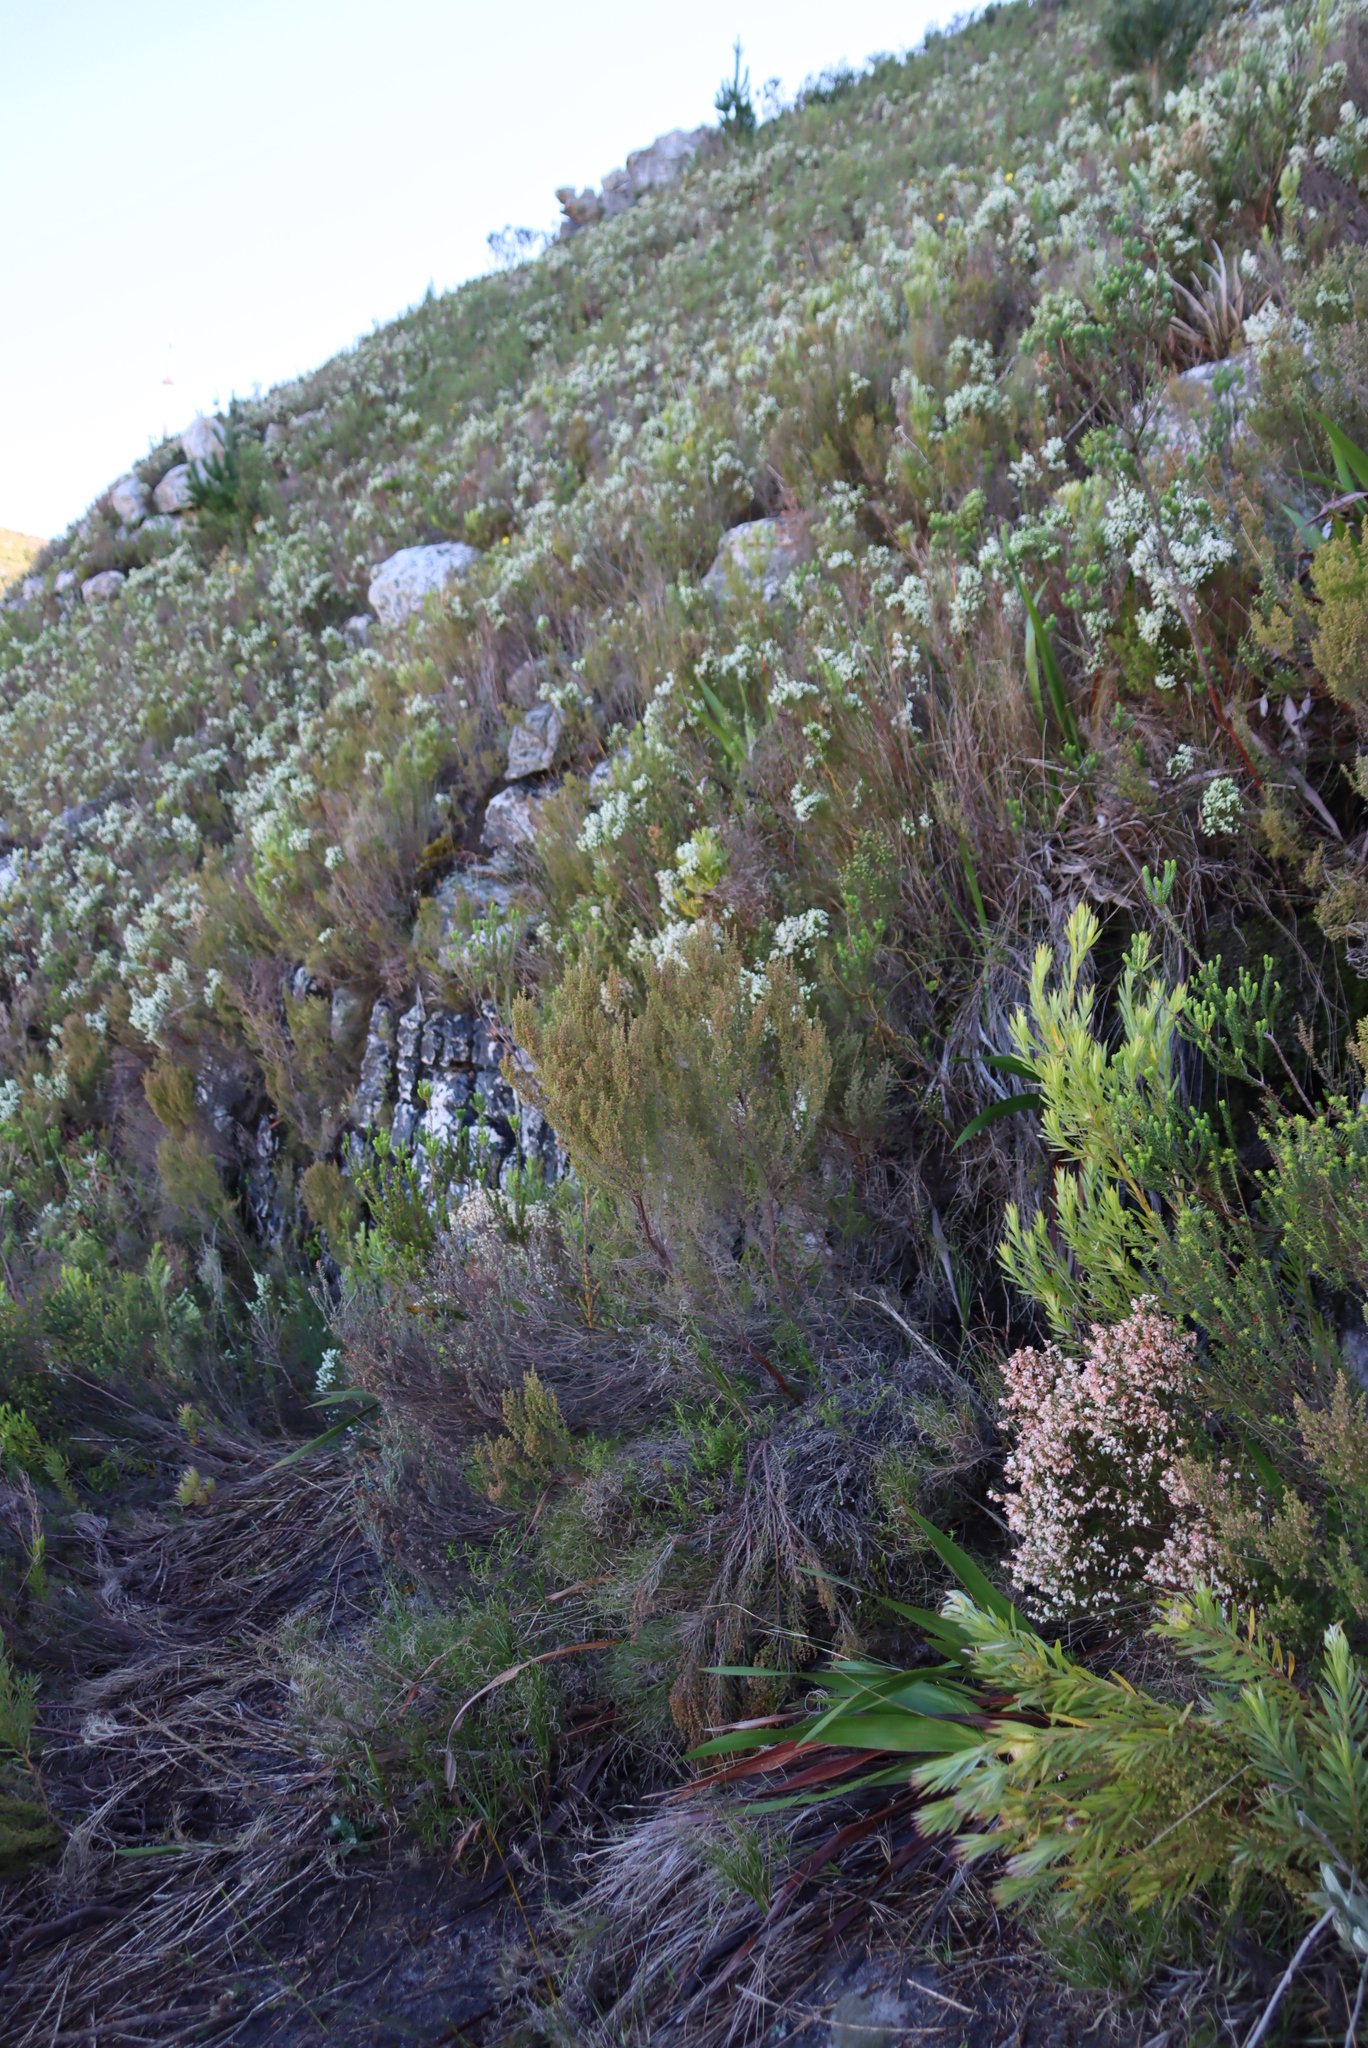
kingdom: Plantae
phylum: Tracheophyta
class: Magnoliopsida
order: Ericales
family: Ericaceae
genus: Erica
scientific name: Erica hispidula
